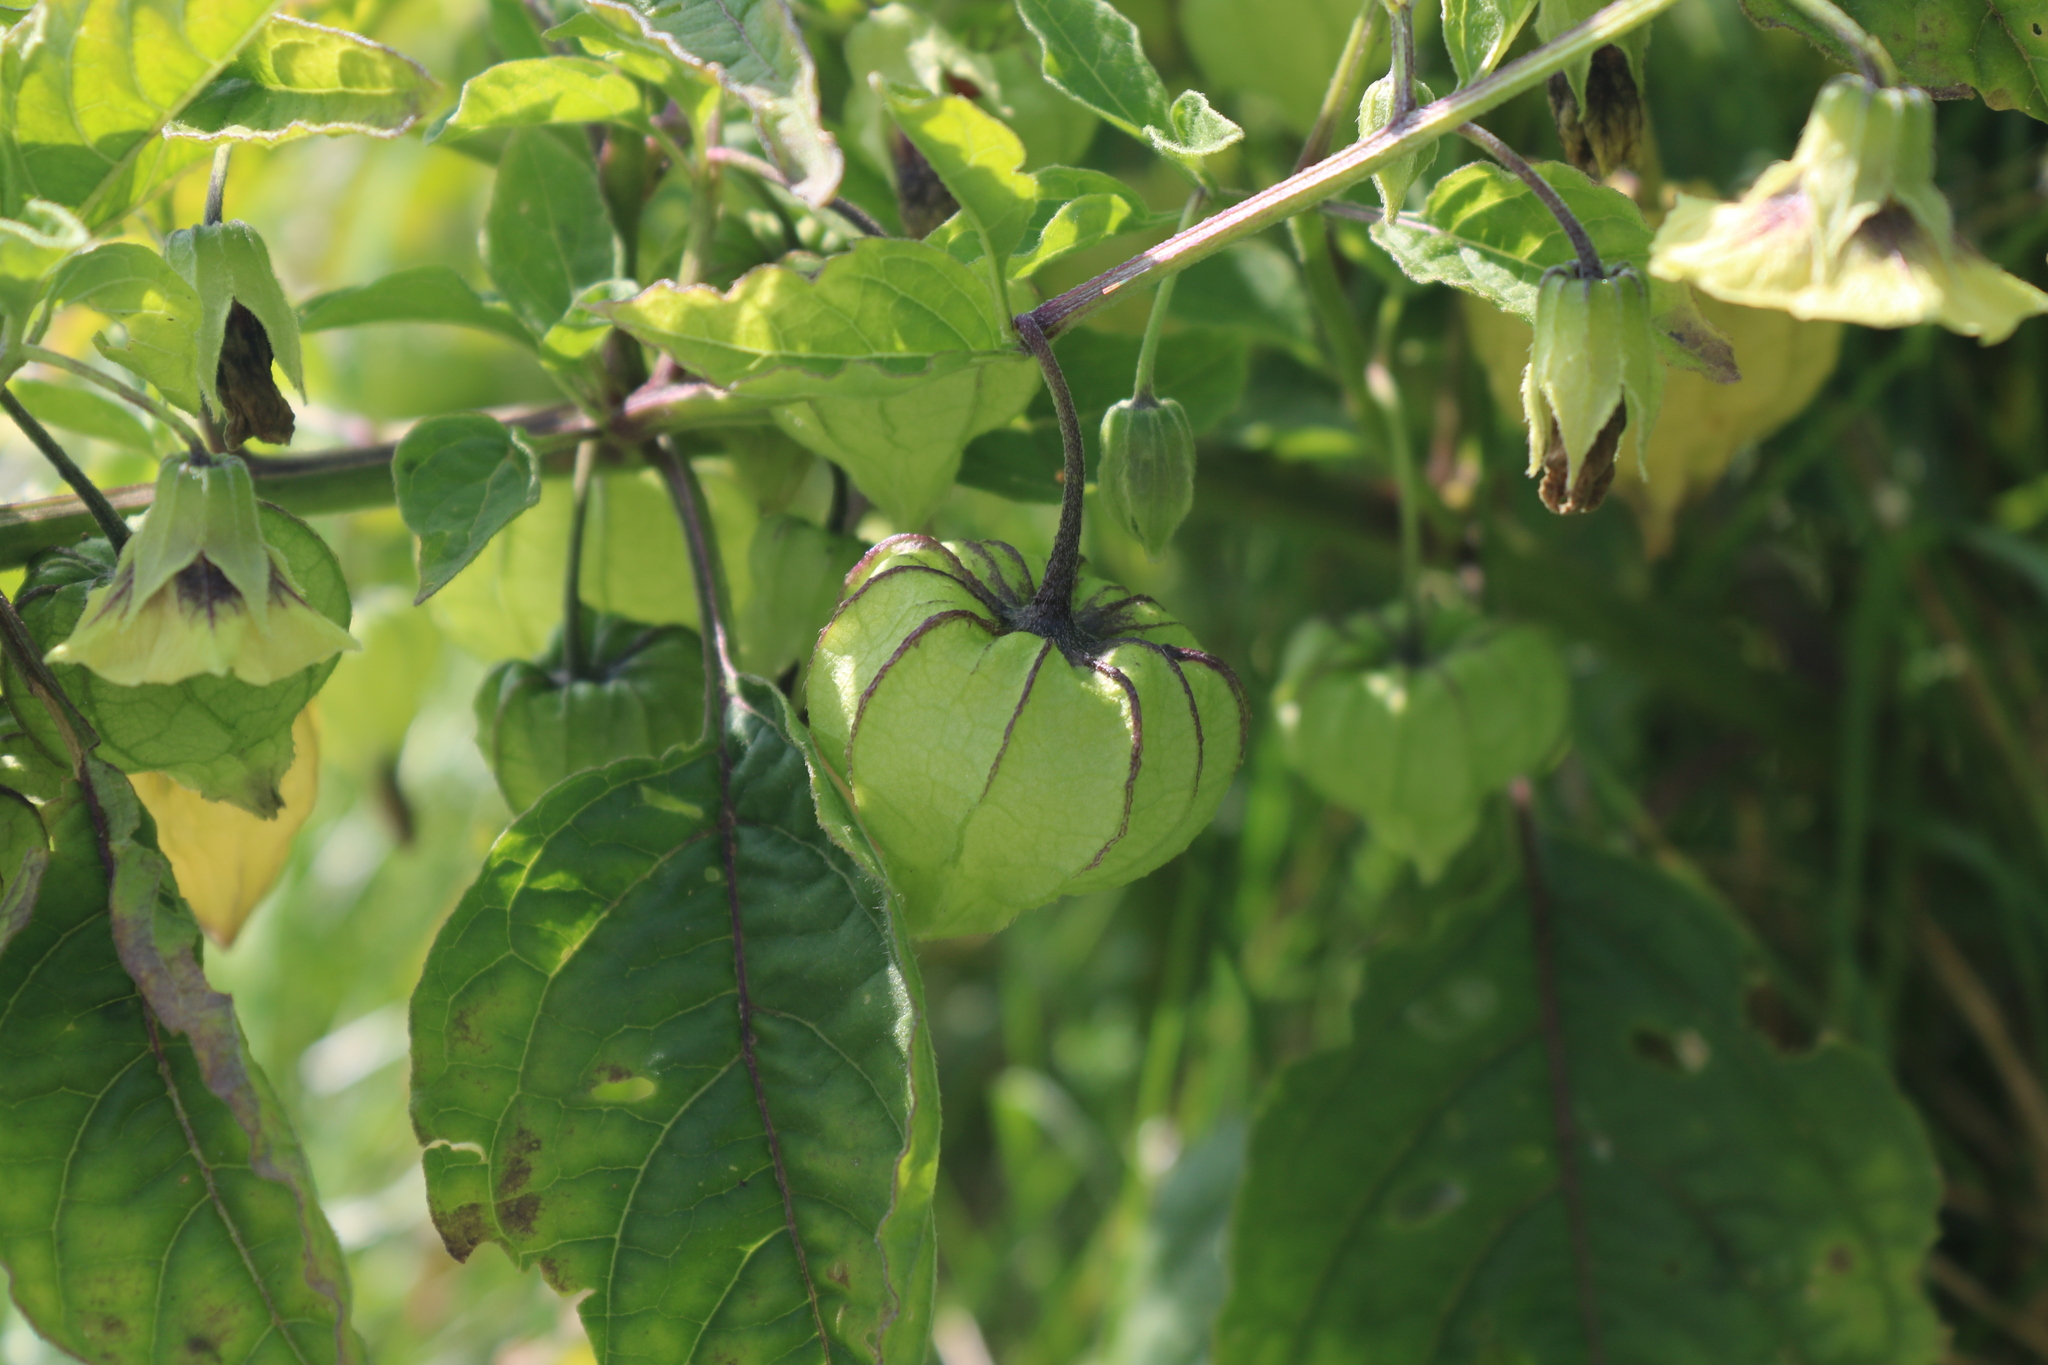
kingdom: Plantae
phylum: Tracheophyta
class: Magnoliopsida
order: Solanales
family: Solanaceae
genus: Physalis
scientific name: Physalis longifolia
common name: Common ground-cherry
